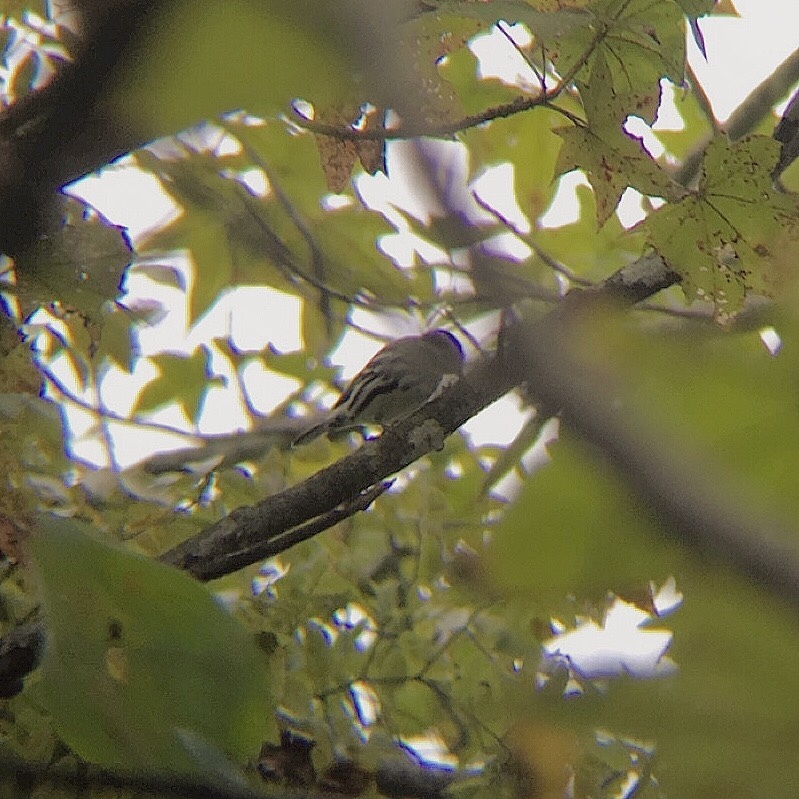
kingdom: Animalia
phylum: Chordata
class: Aves
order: Passeriformes
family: Parulidae
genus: Mniotilta
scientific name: Mniotilta varia
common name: Black-and-white warbler
